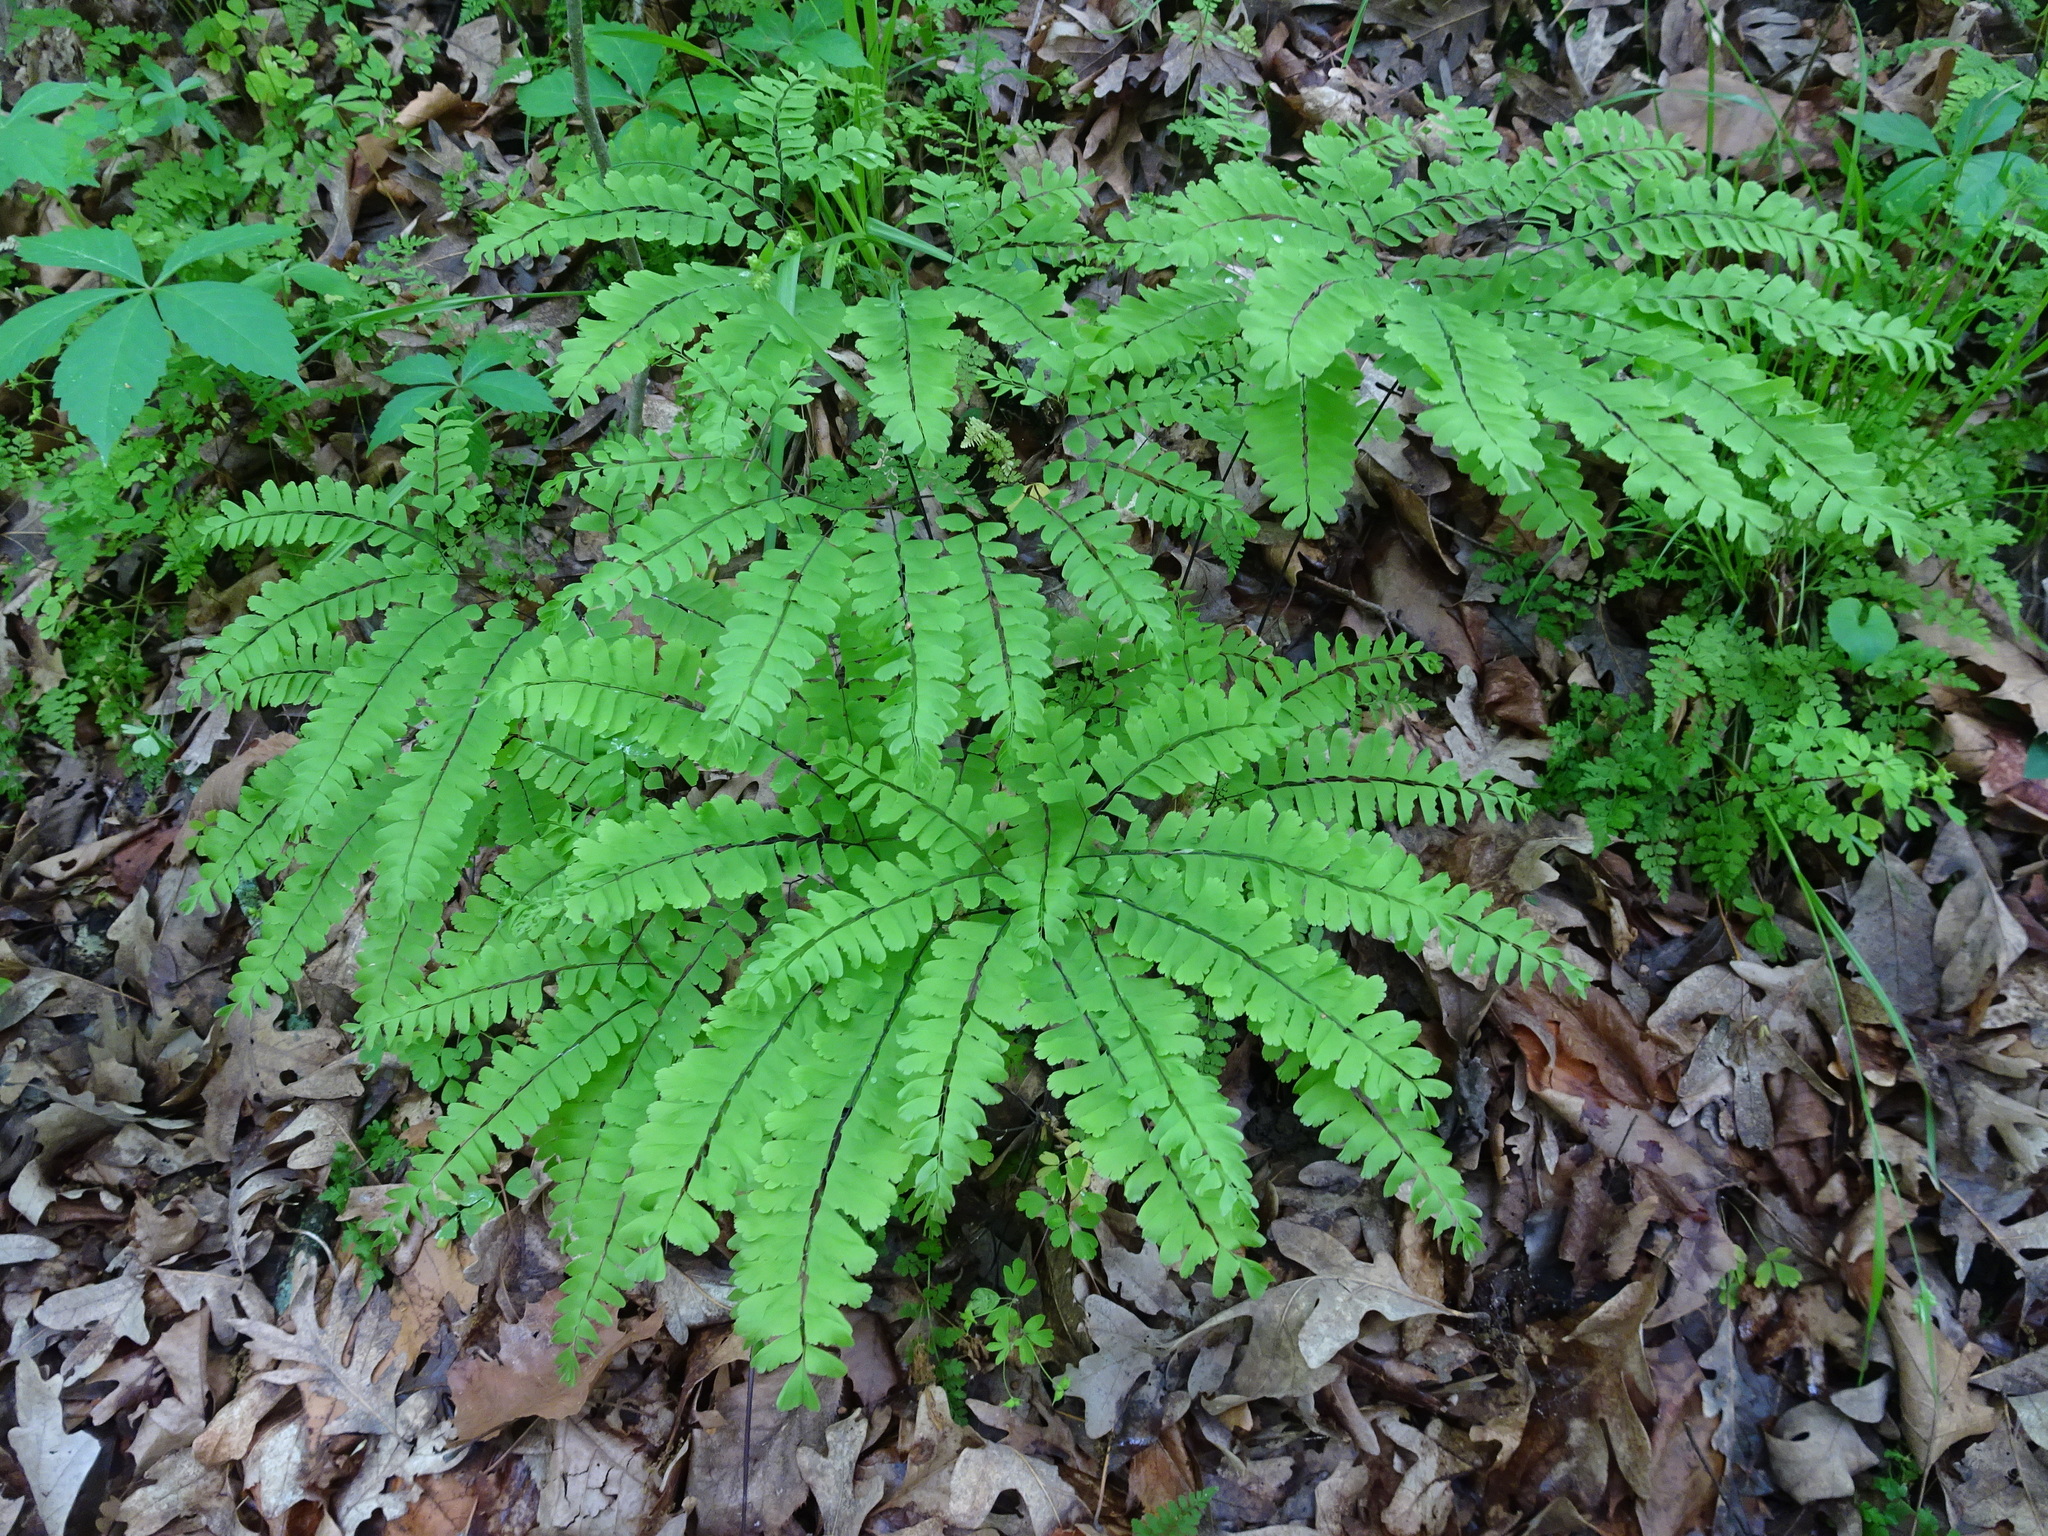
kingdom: Plantae
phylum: Tracheophyta
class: Polypodiopsida
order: Polypodiales
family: Pteridaceae
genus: Adiantum
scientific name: Adiantum pedatum
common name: Five-finger fern
